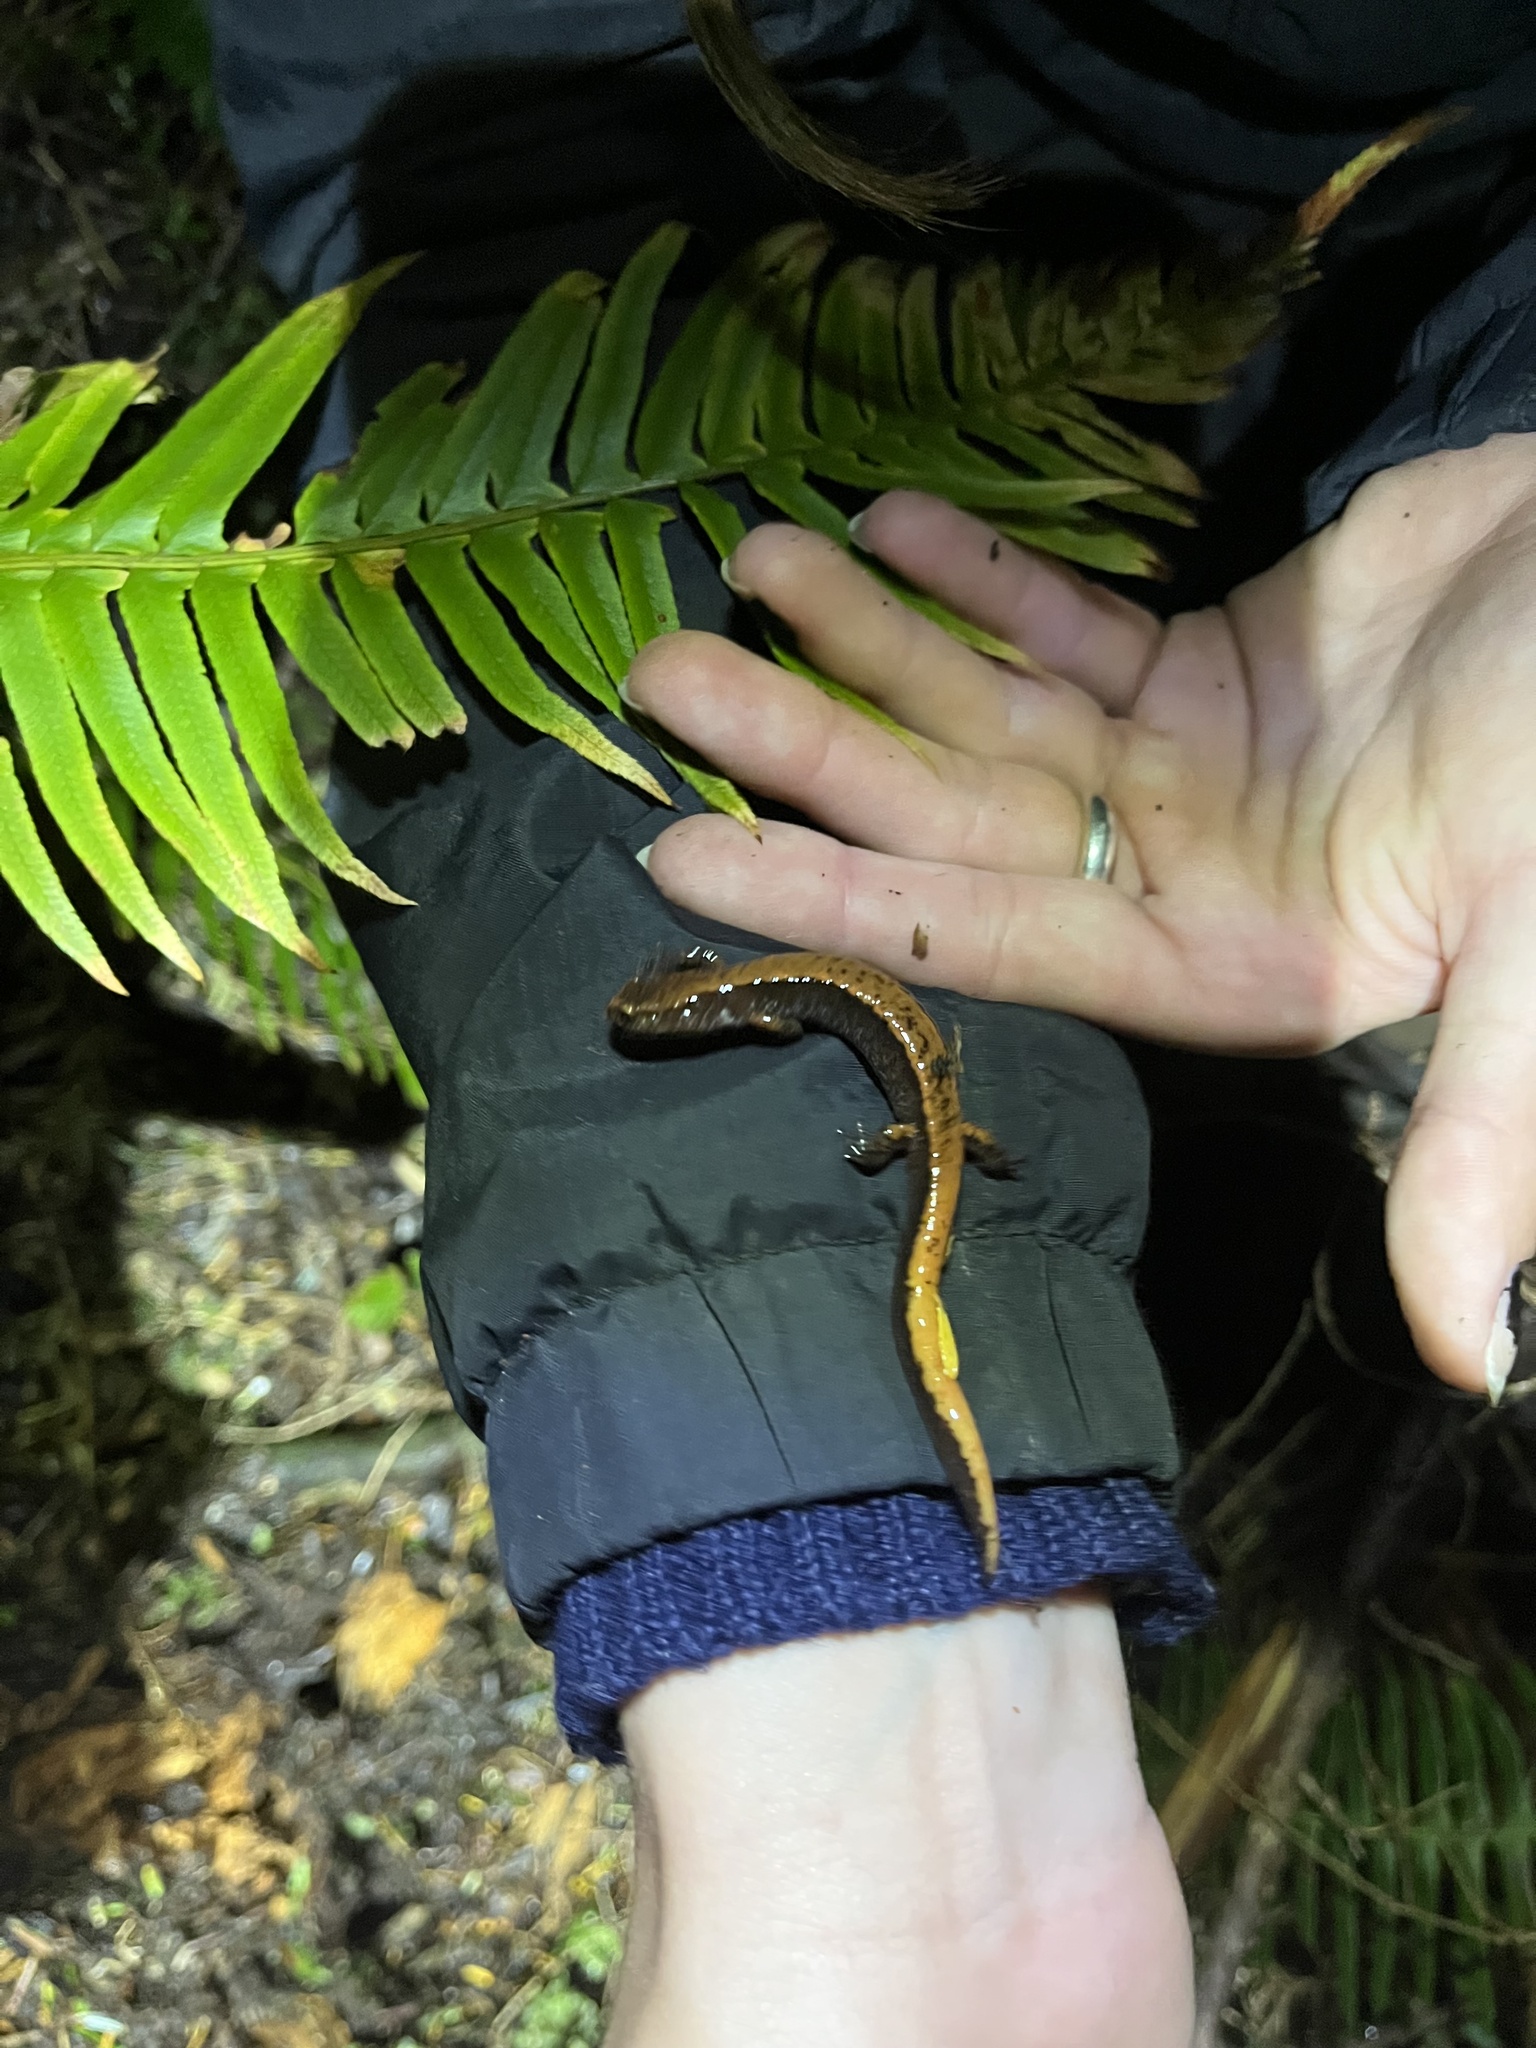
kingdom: Animalia
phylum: Chordata
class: Amphibia
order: Caudata
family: Plethodontidae
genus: Plethodon
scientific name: Plethodon vehiculum
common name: Western red-backed salamander
